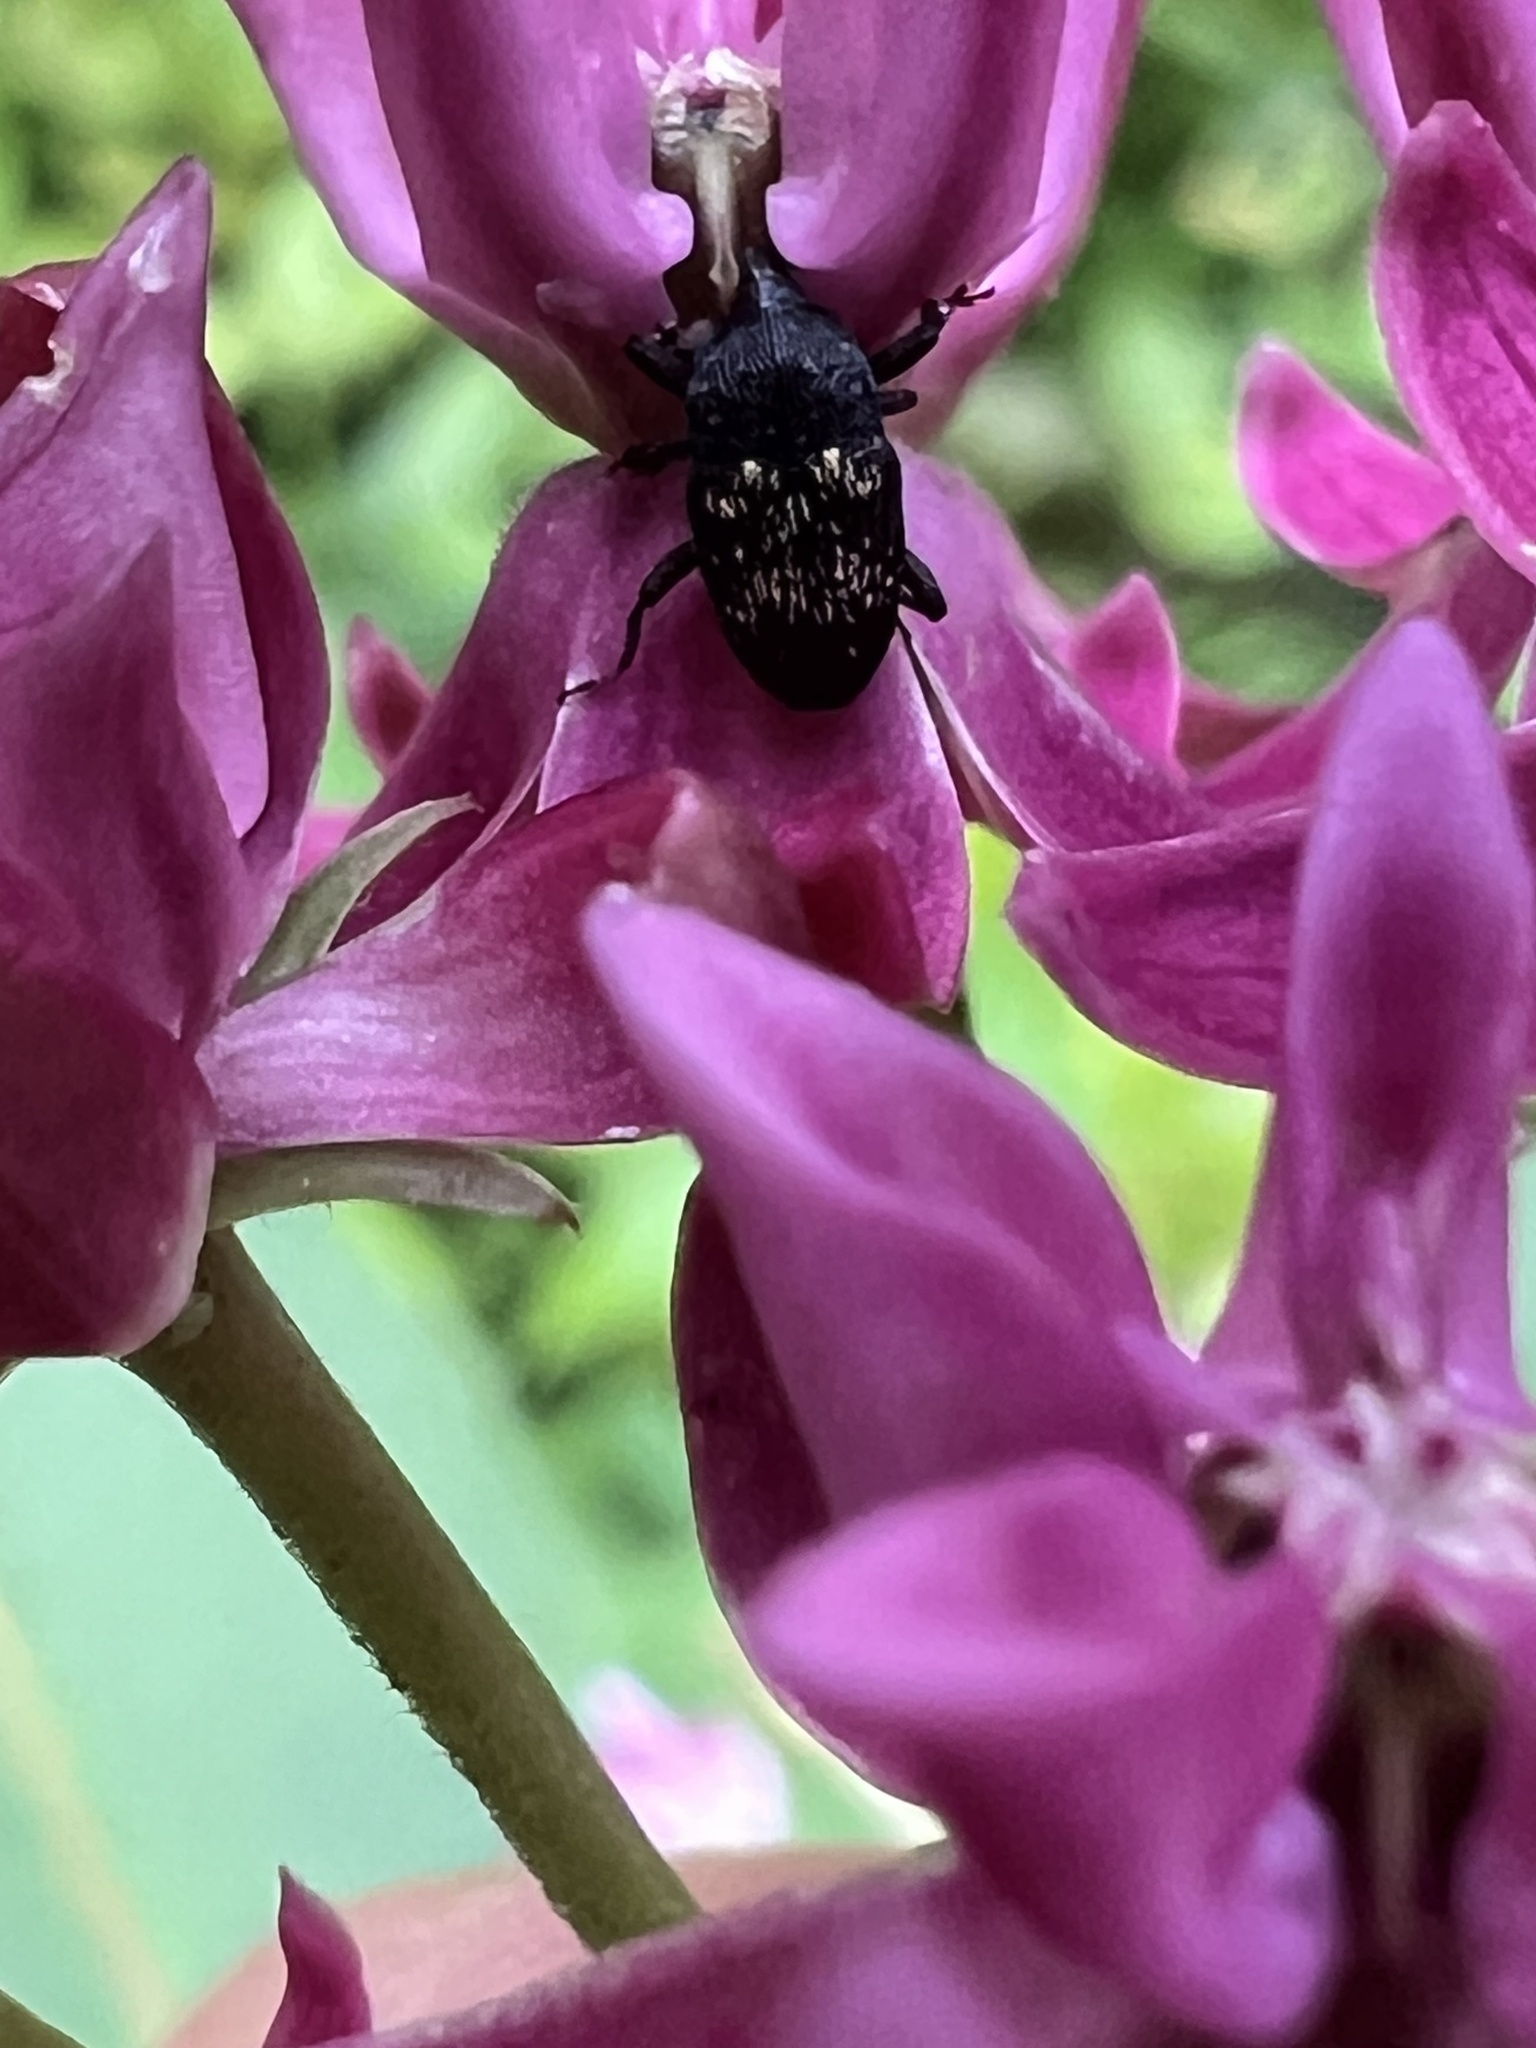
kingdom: Animalia
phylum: Arthropoda
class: Insecta
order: Coleoptera
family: Curculionidae
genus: Glyptobaris
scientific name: Glyptobaris lecontei
